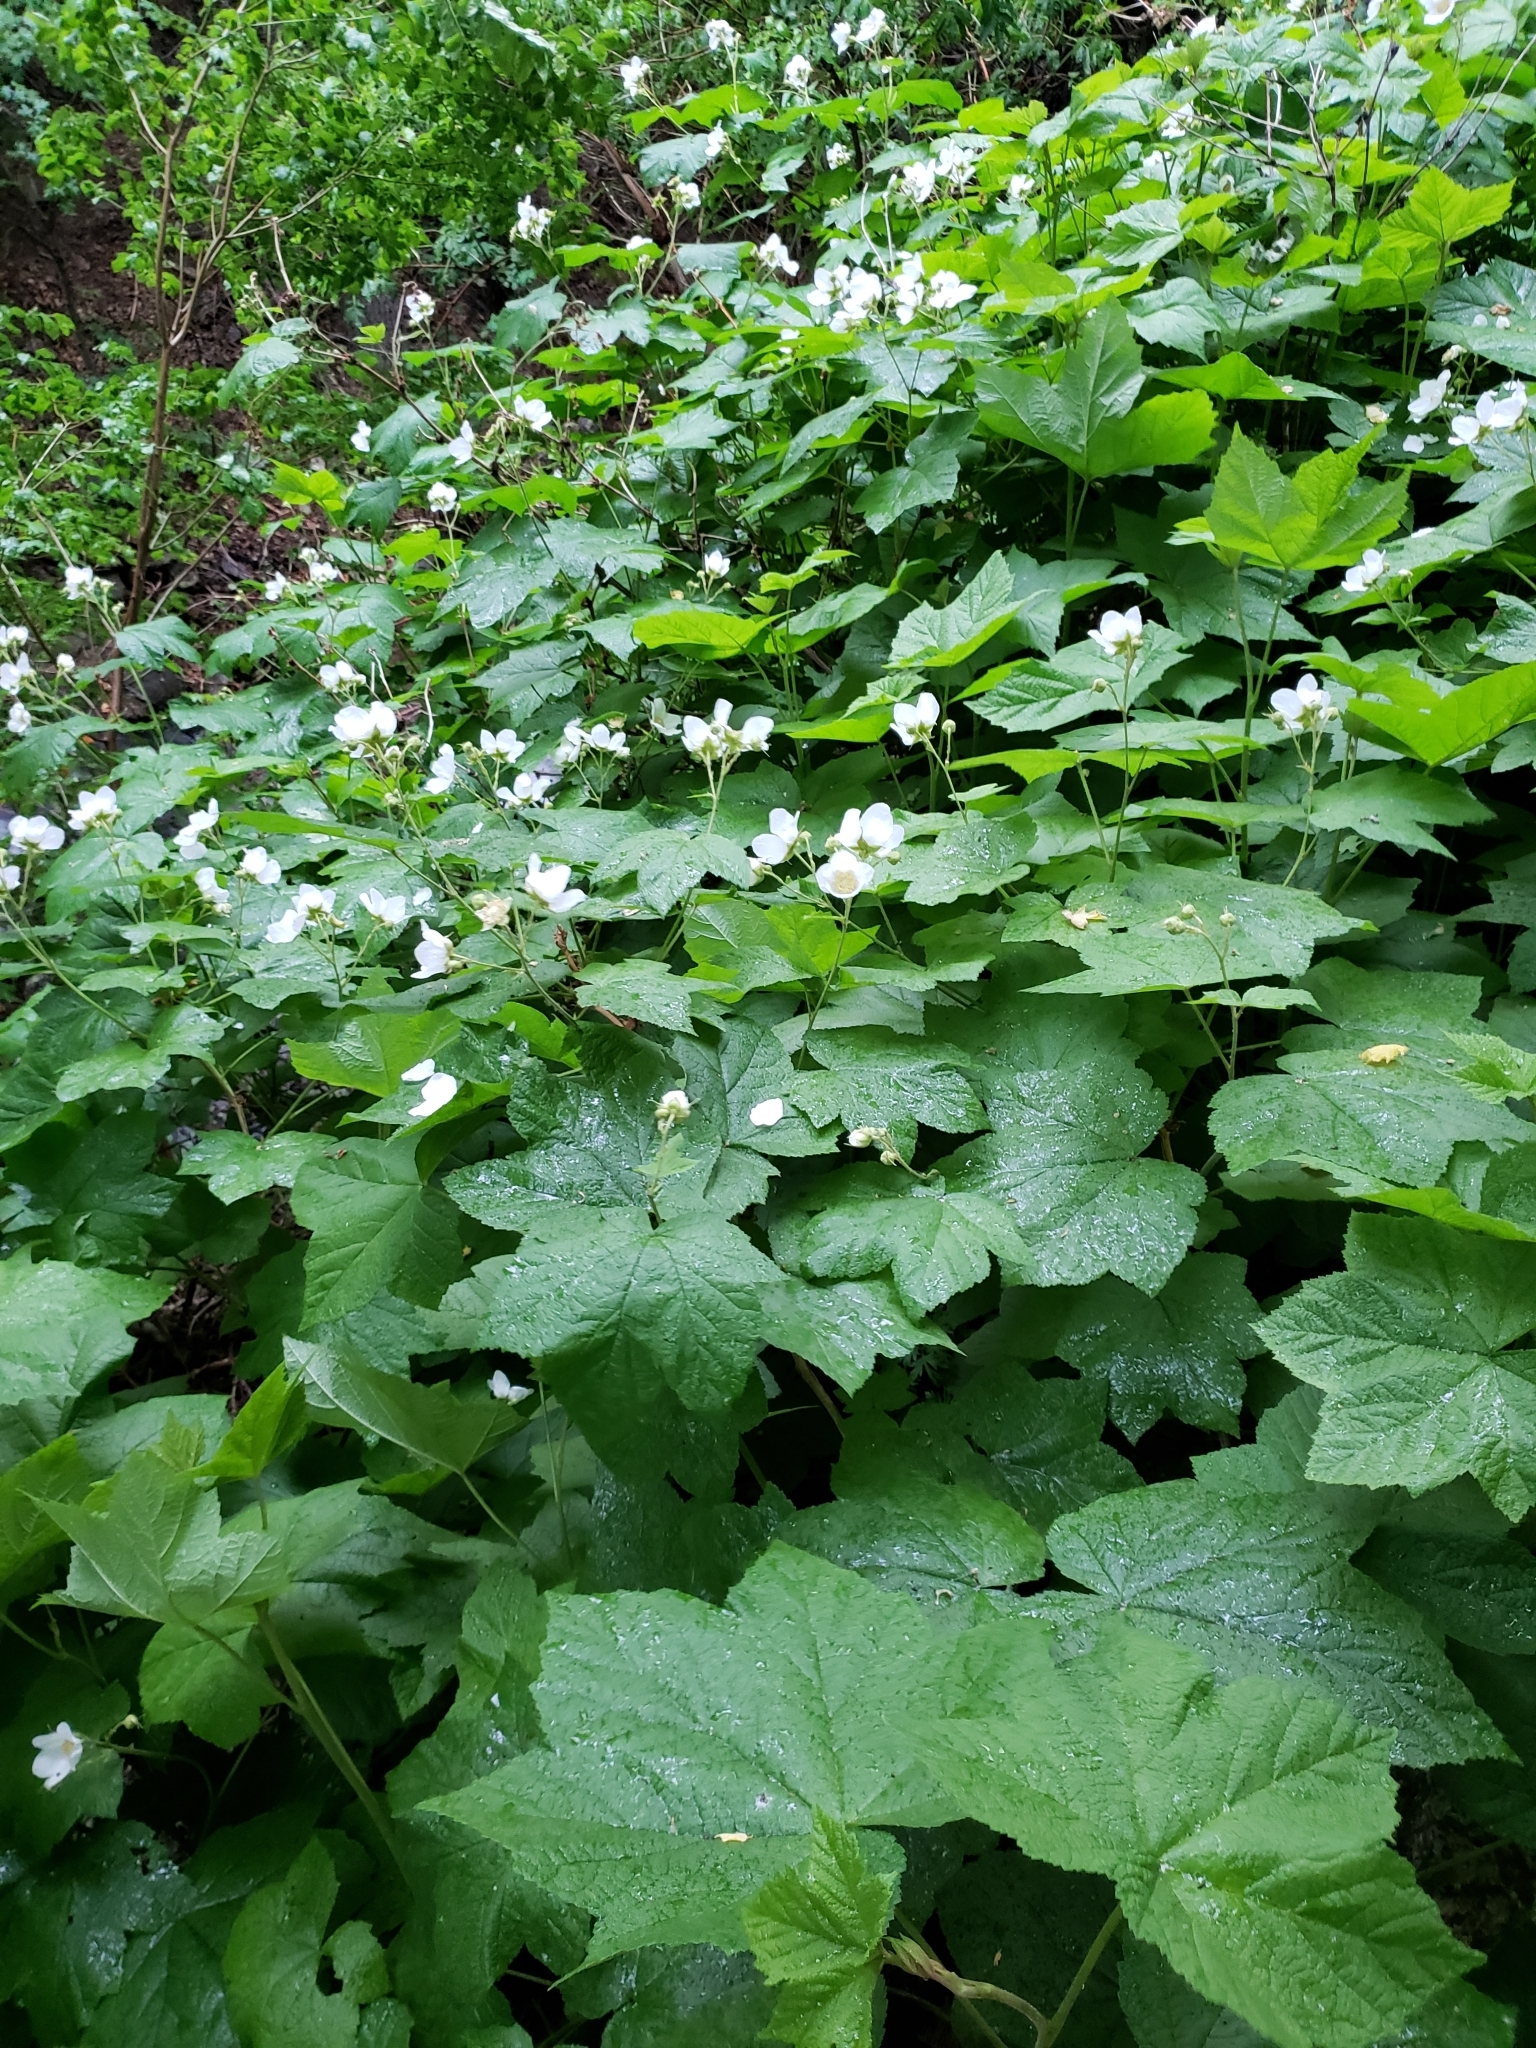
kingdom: Plantae
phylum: Tracheophyta
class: Magnoliopsida
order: Rosales
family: Rosaceae
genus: Rubus
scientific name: Rubus parviflorus
